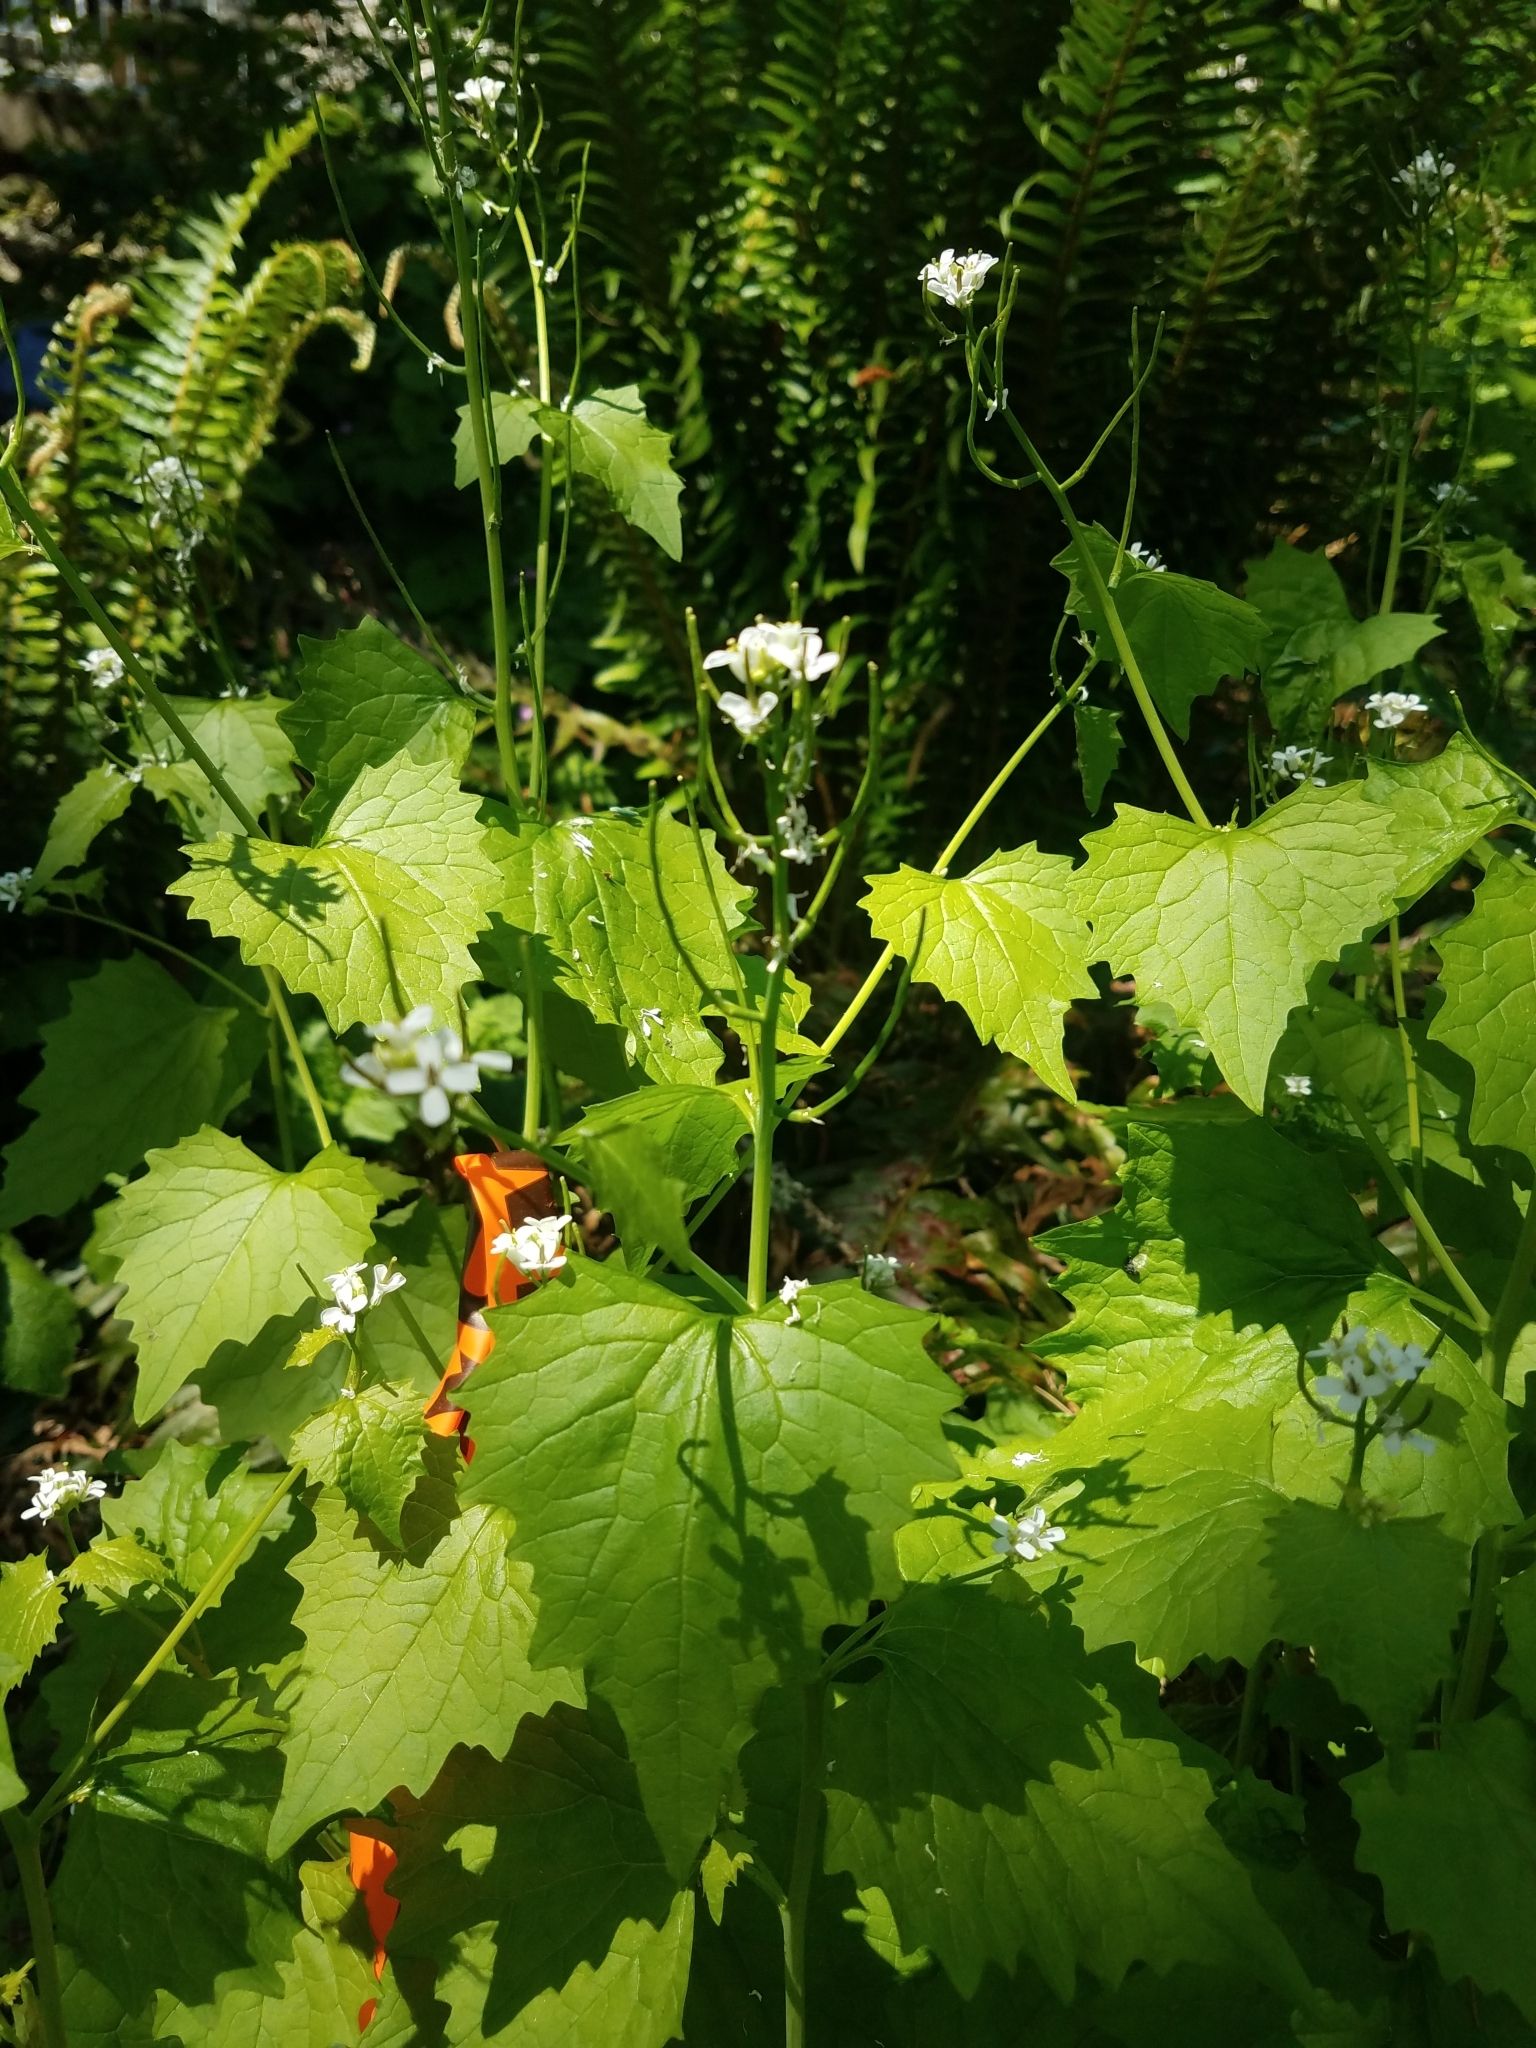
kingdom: Plantae
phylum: Tracheophyta
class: Magnoliopsida
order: Brassicales
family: Brassicaceae
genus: Alliaria
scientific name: Alliaria petiolata
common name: Garlic mustard
